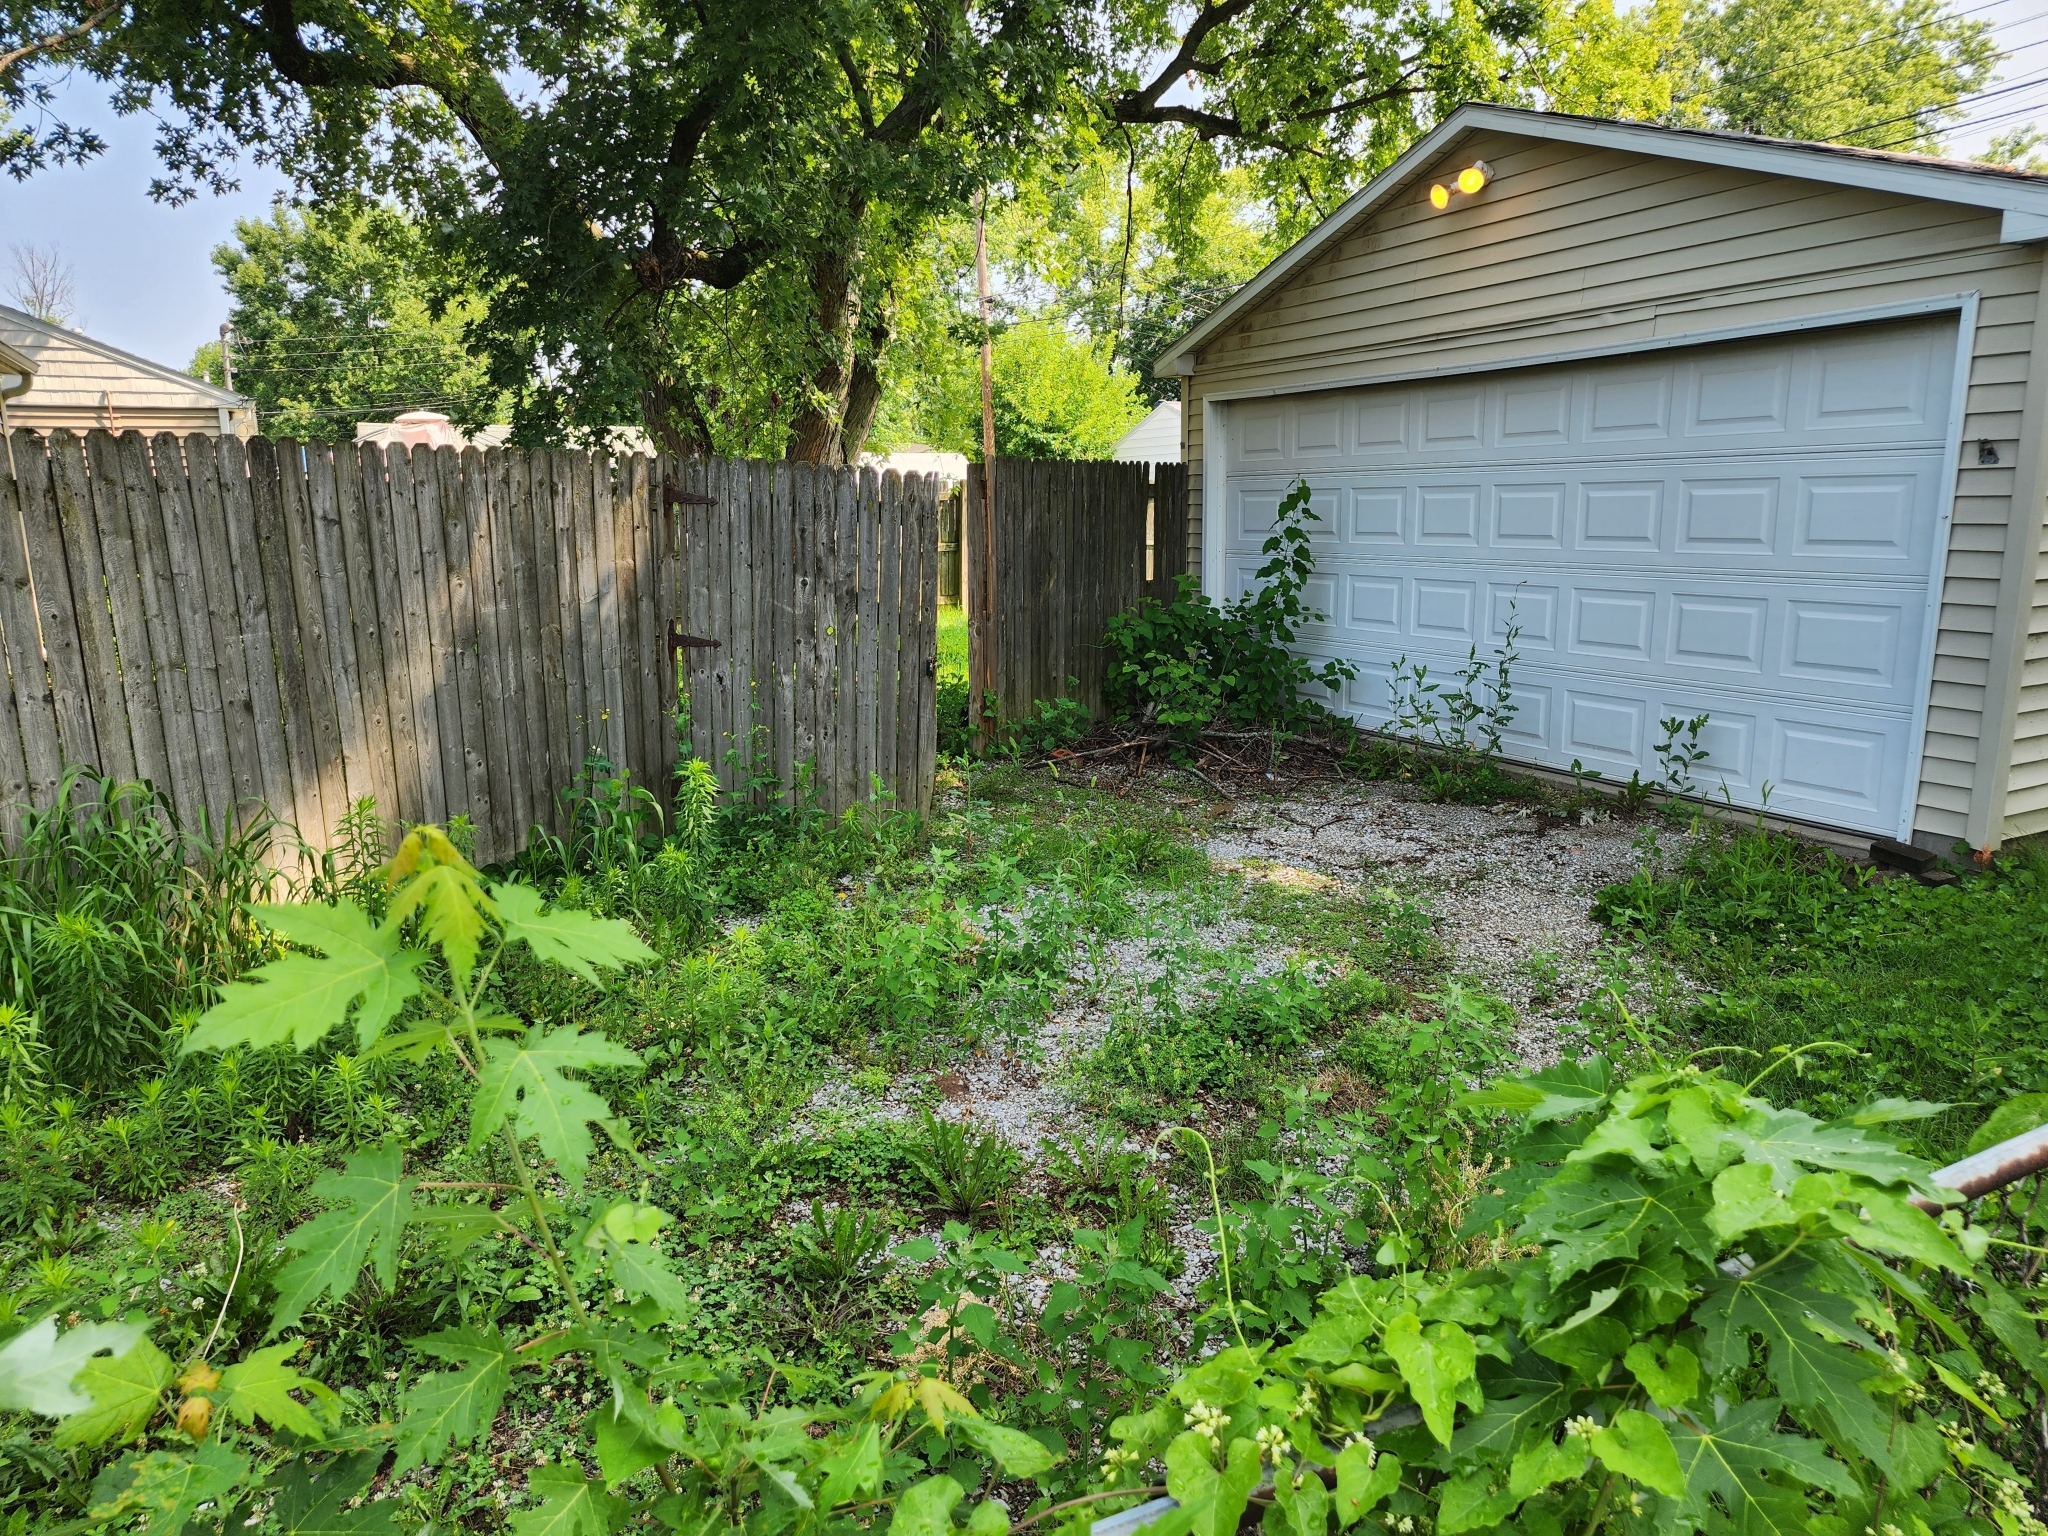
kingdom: Plantae
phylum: Tracheophyta
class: Magnoliopsida
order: Asterales
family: Asteraceae
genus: Lactuca
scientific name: Lactuca serriola
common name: Prickly lettuce
